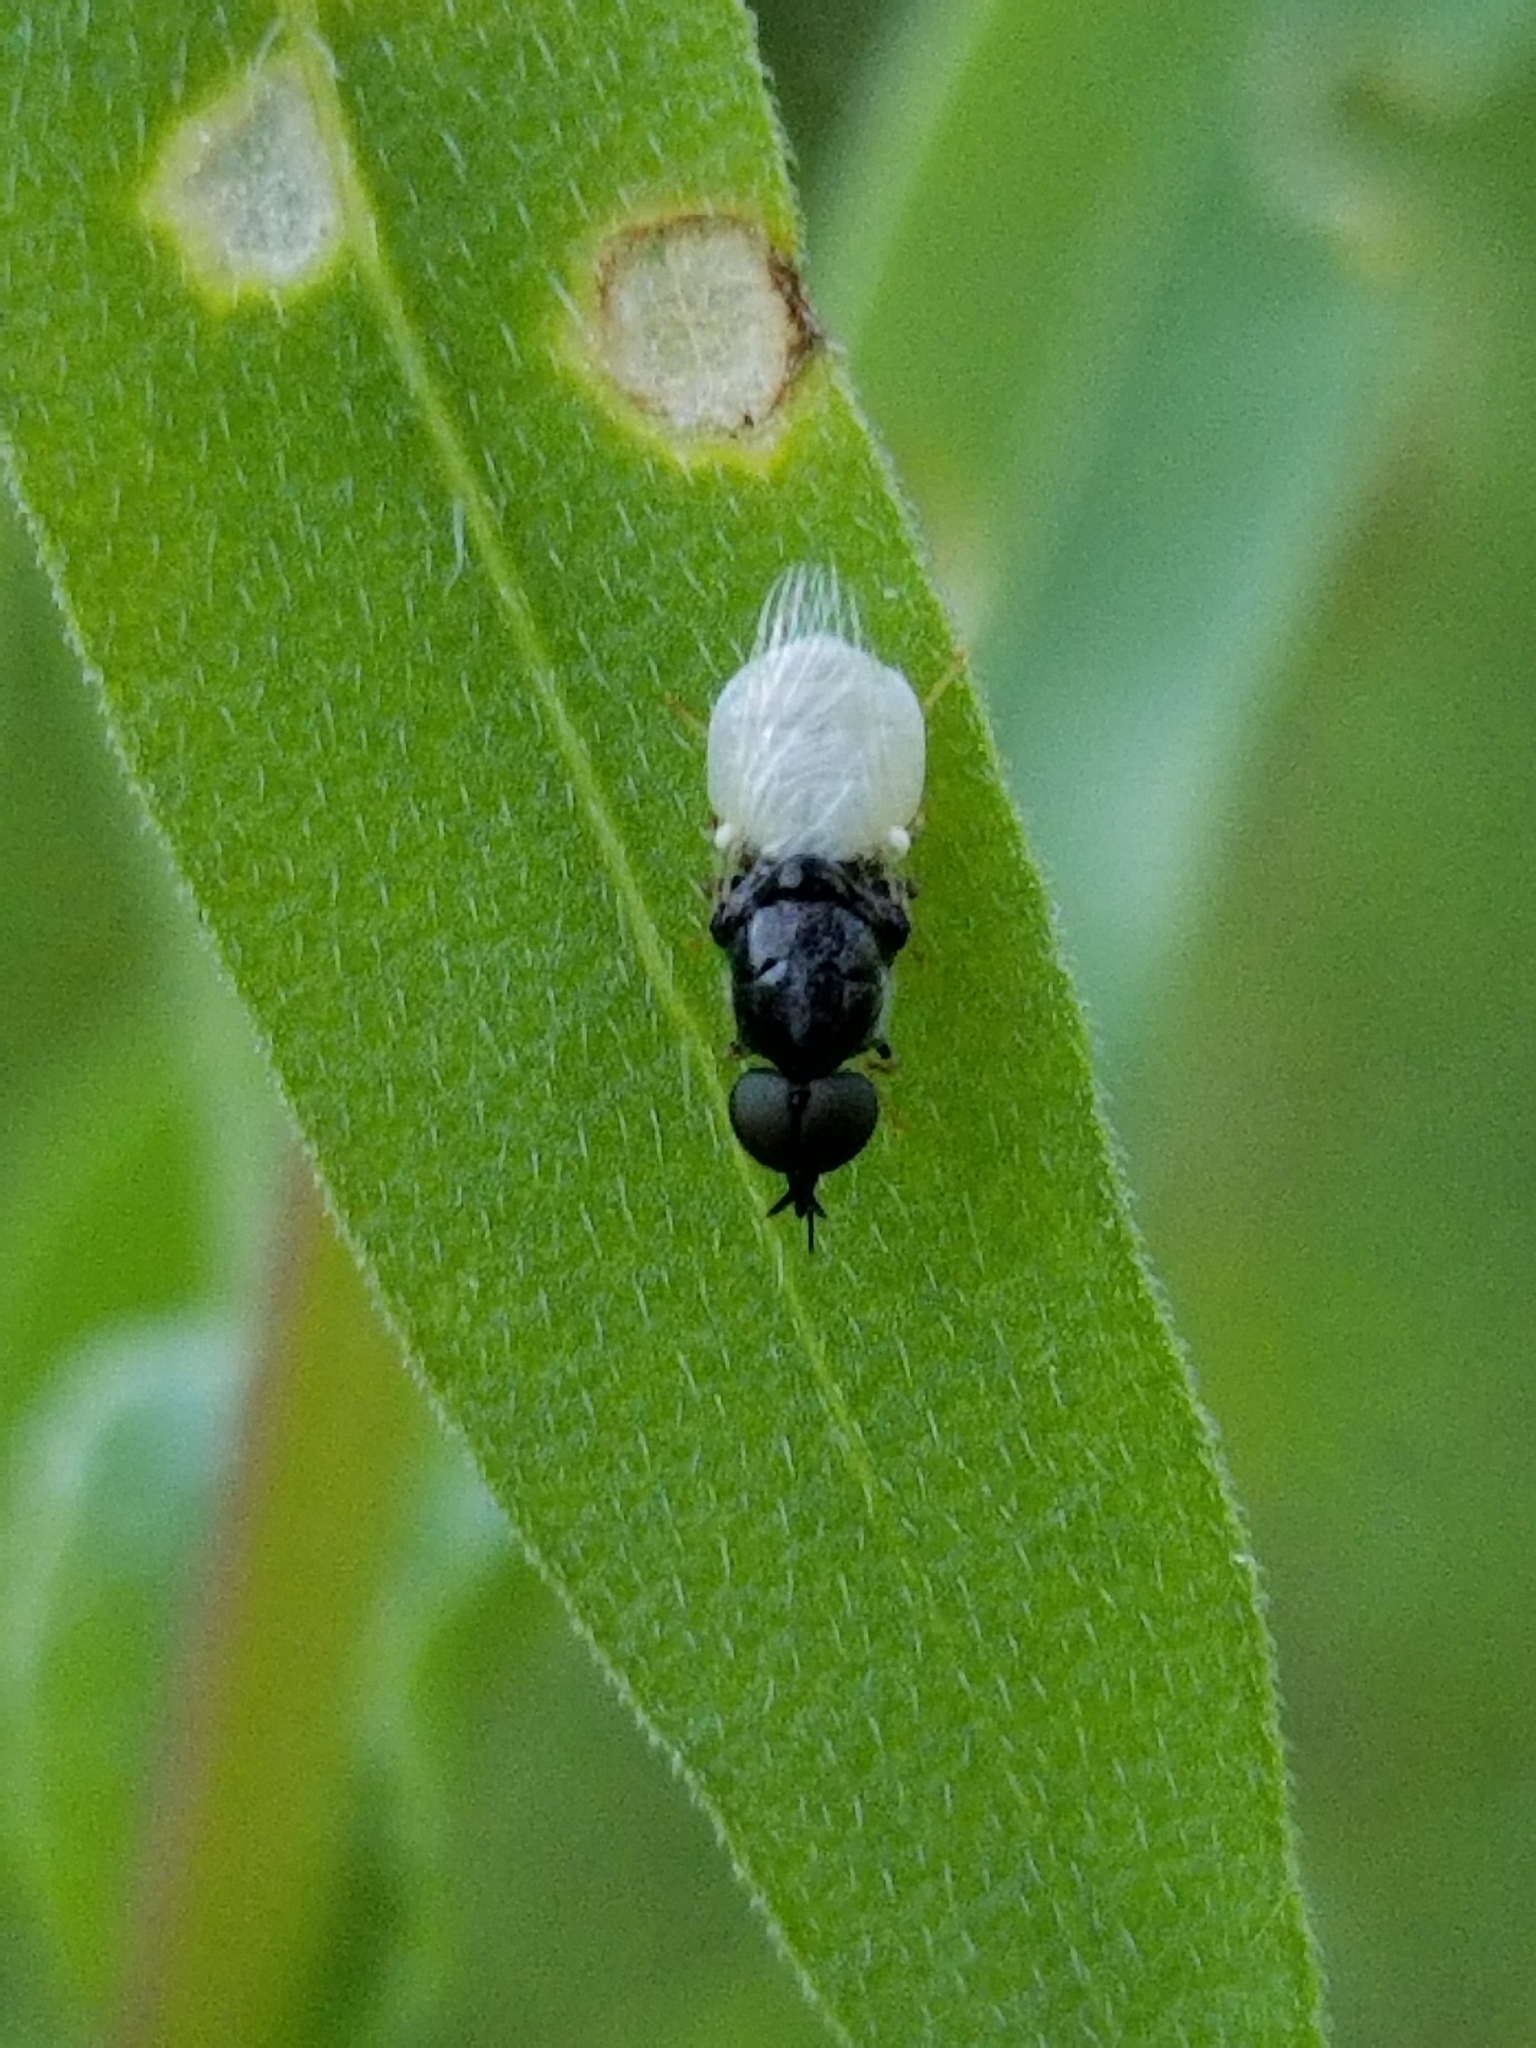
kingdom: Animalia
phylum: Arthropoda
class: Insecta
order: Diptera
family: Stratiomyidae
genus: Nemotelus
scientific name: Nemotelus kansensis
